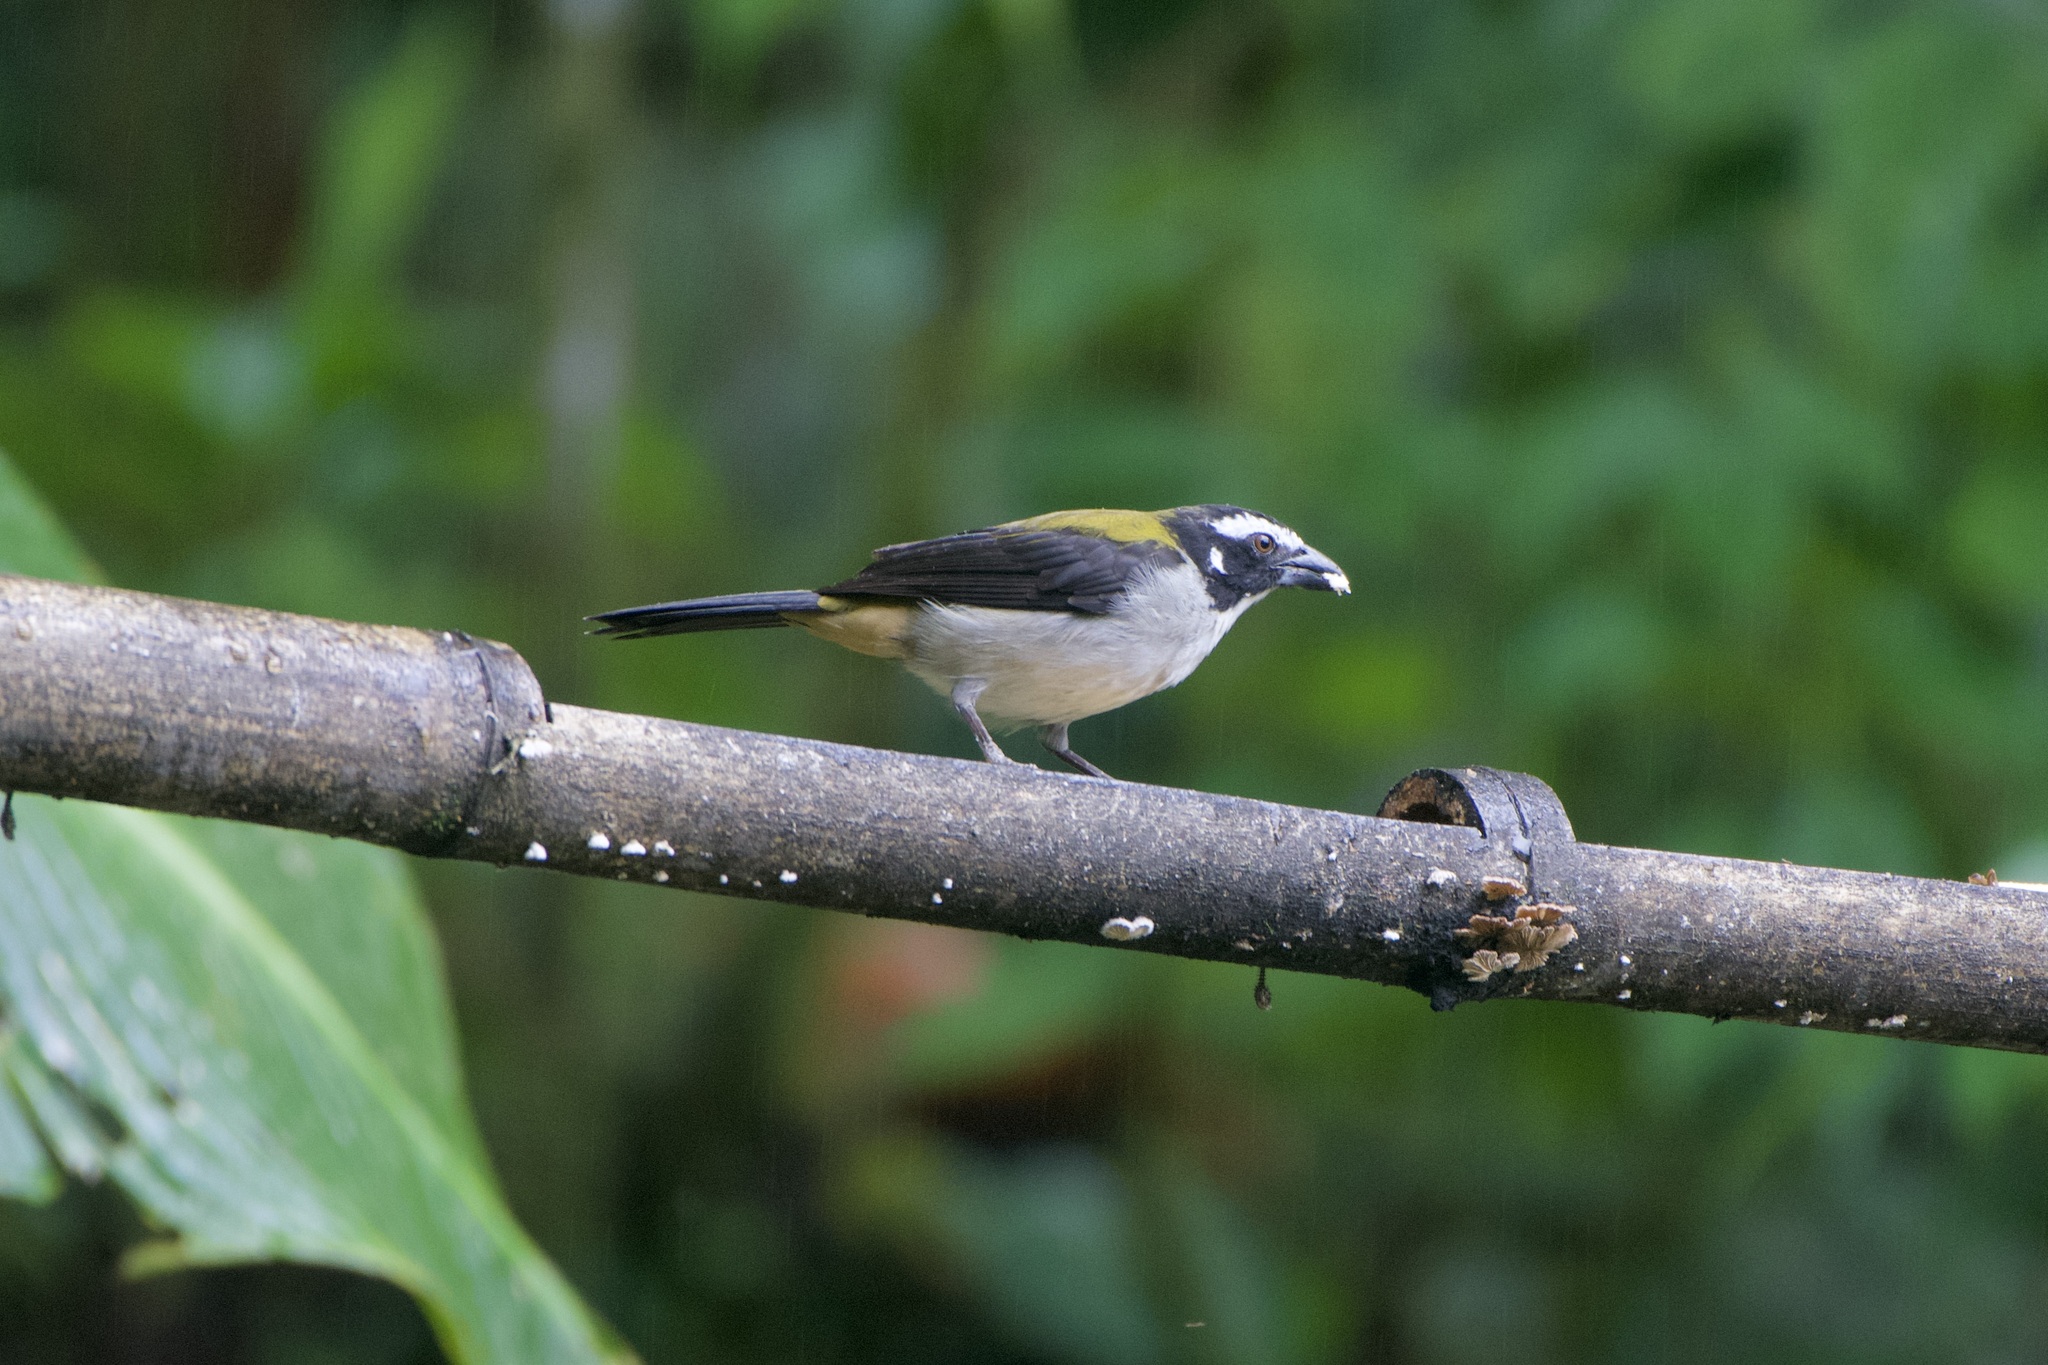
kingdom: Animalia
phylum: Chordata
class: Aves
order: Passeriformes
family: Thraupidae
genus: Saltator
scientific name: Saltator atripennis
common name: Black-winged saltator
